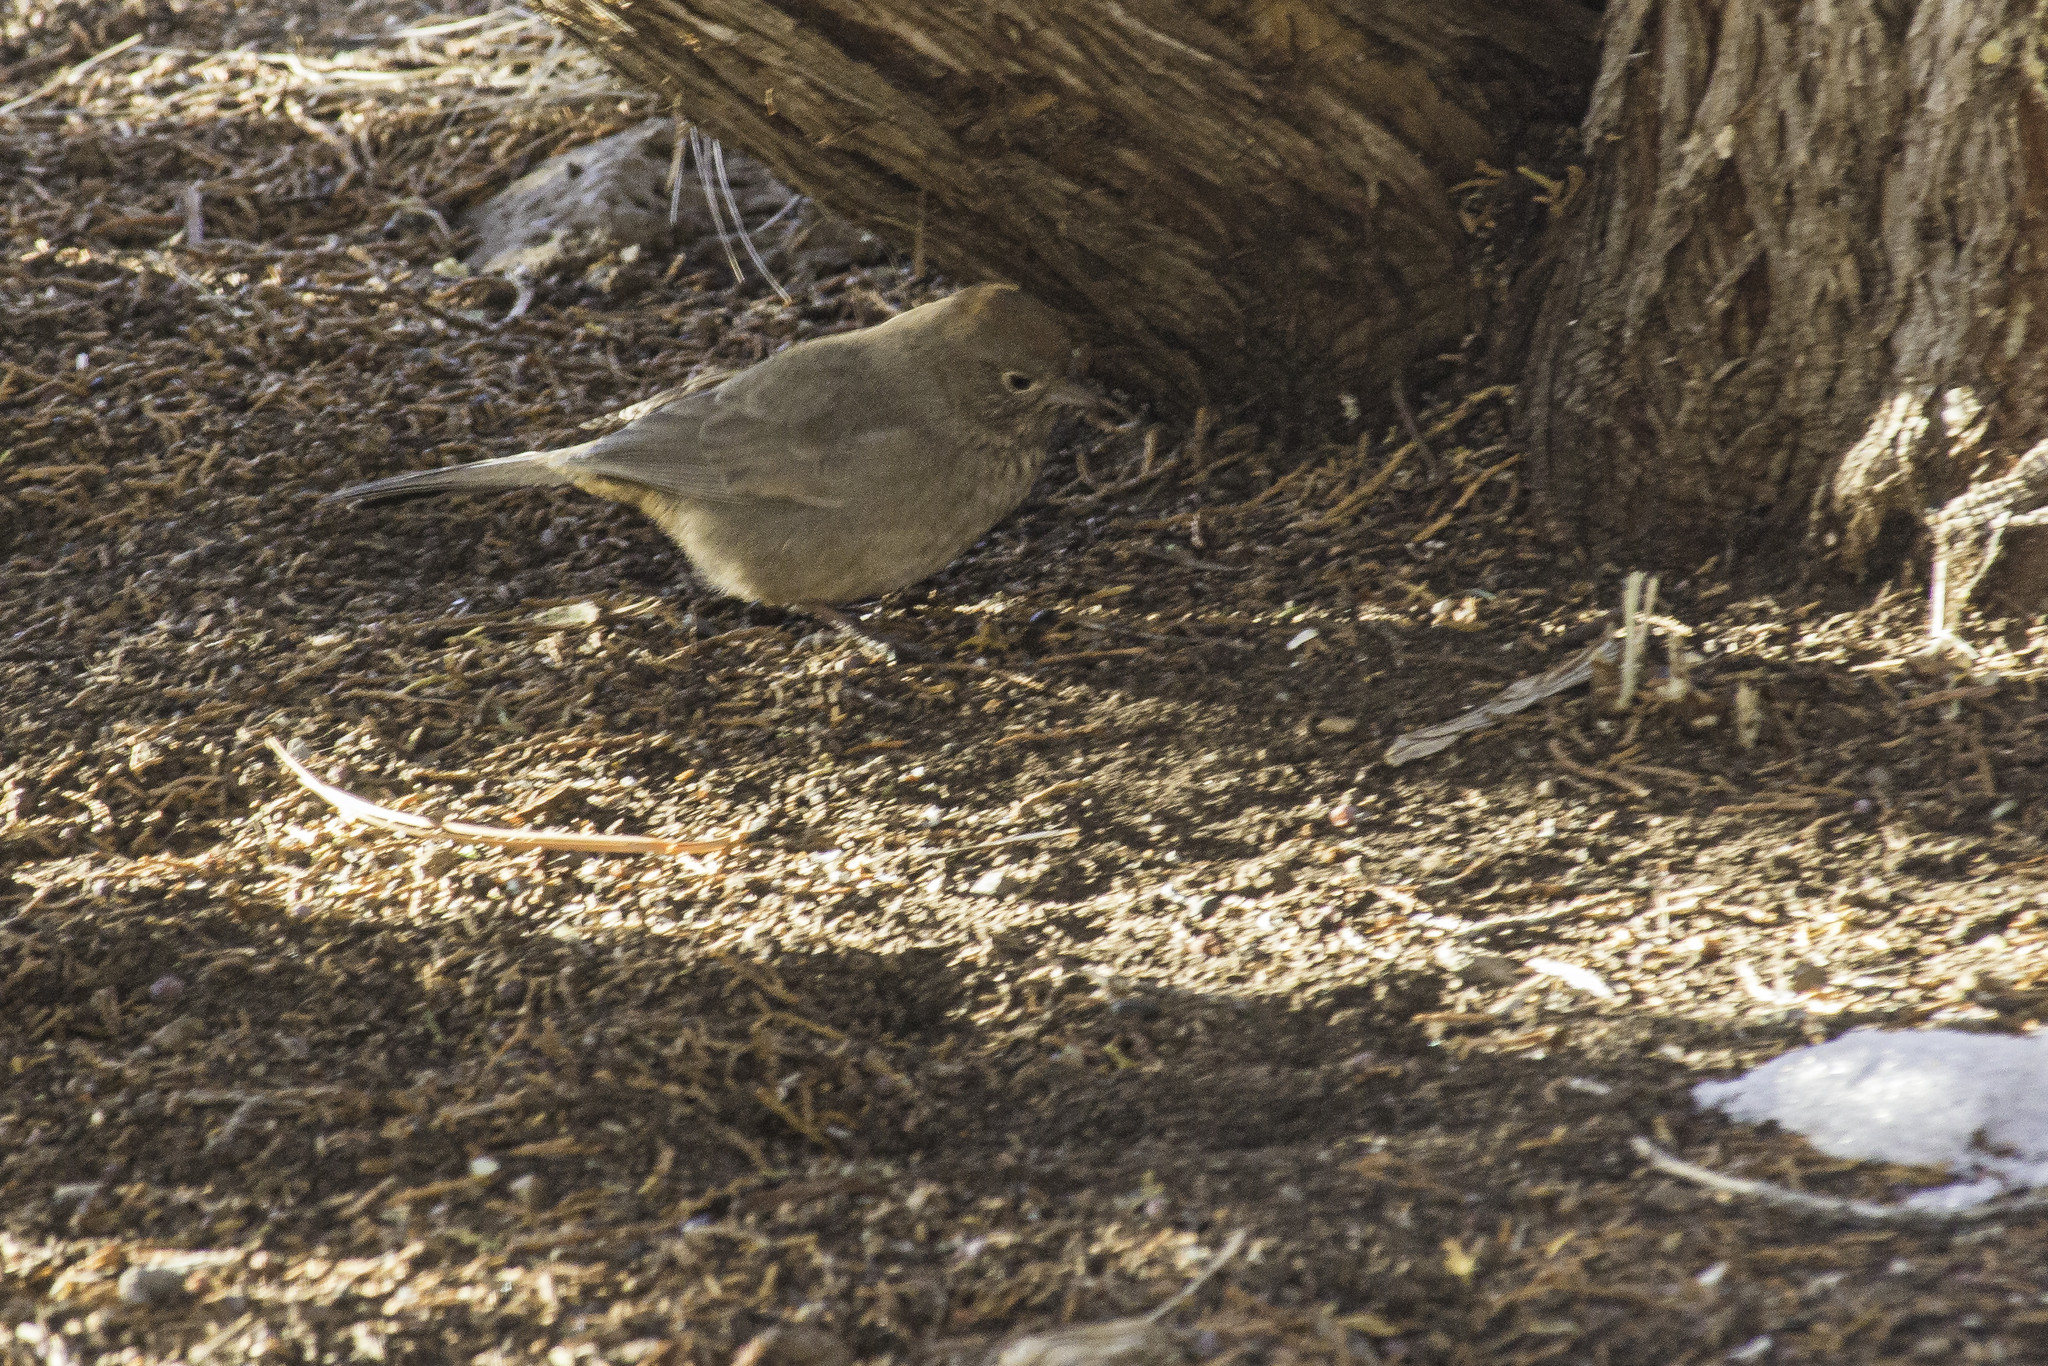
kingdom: Animalia
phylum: Chordata
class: Aves
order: Passeriformes
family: Passerellidae
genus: Melozone
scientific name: Melozone fusca
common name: Canyon towhee
